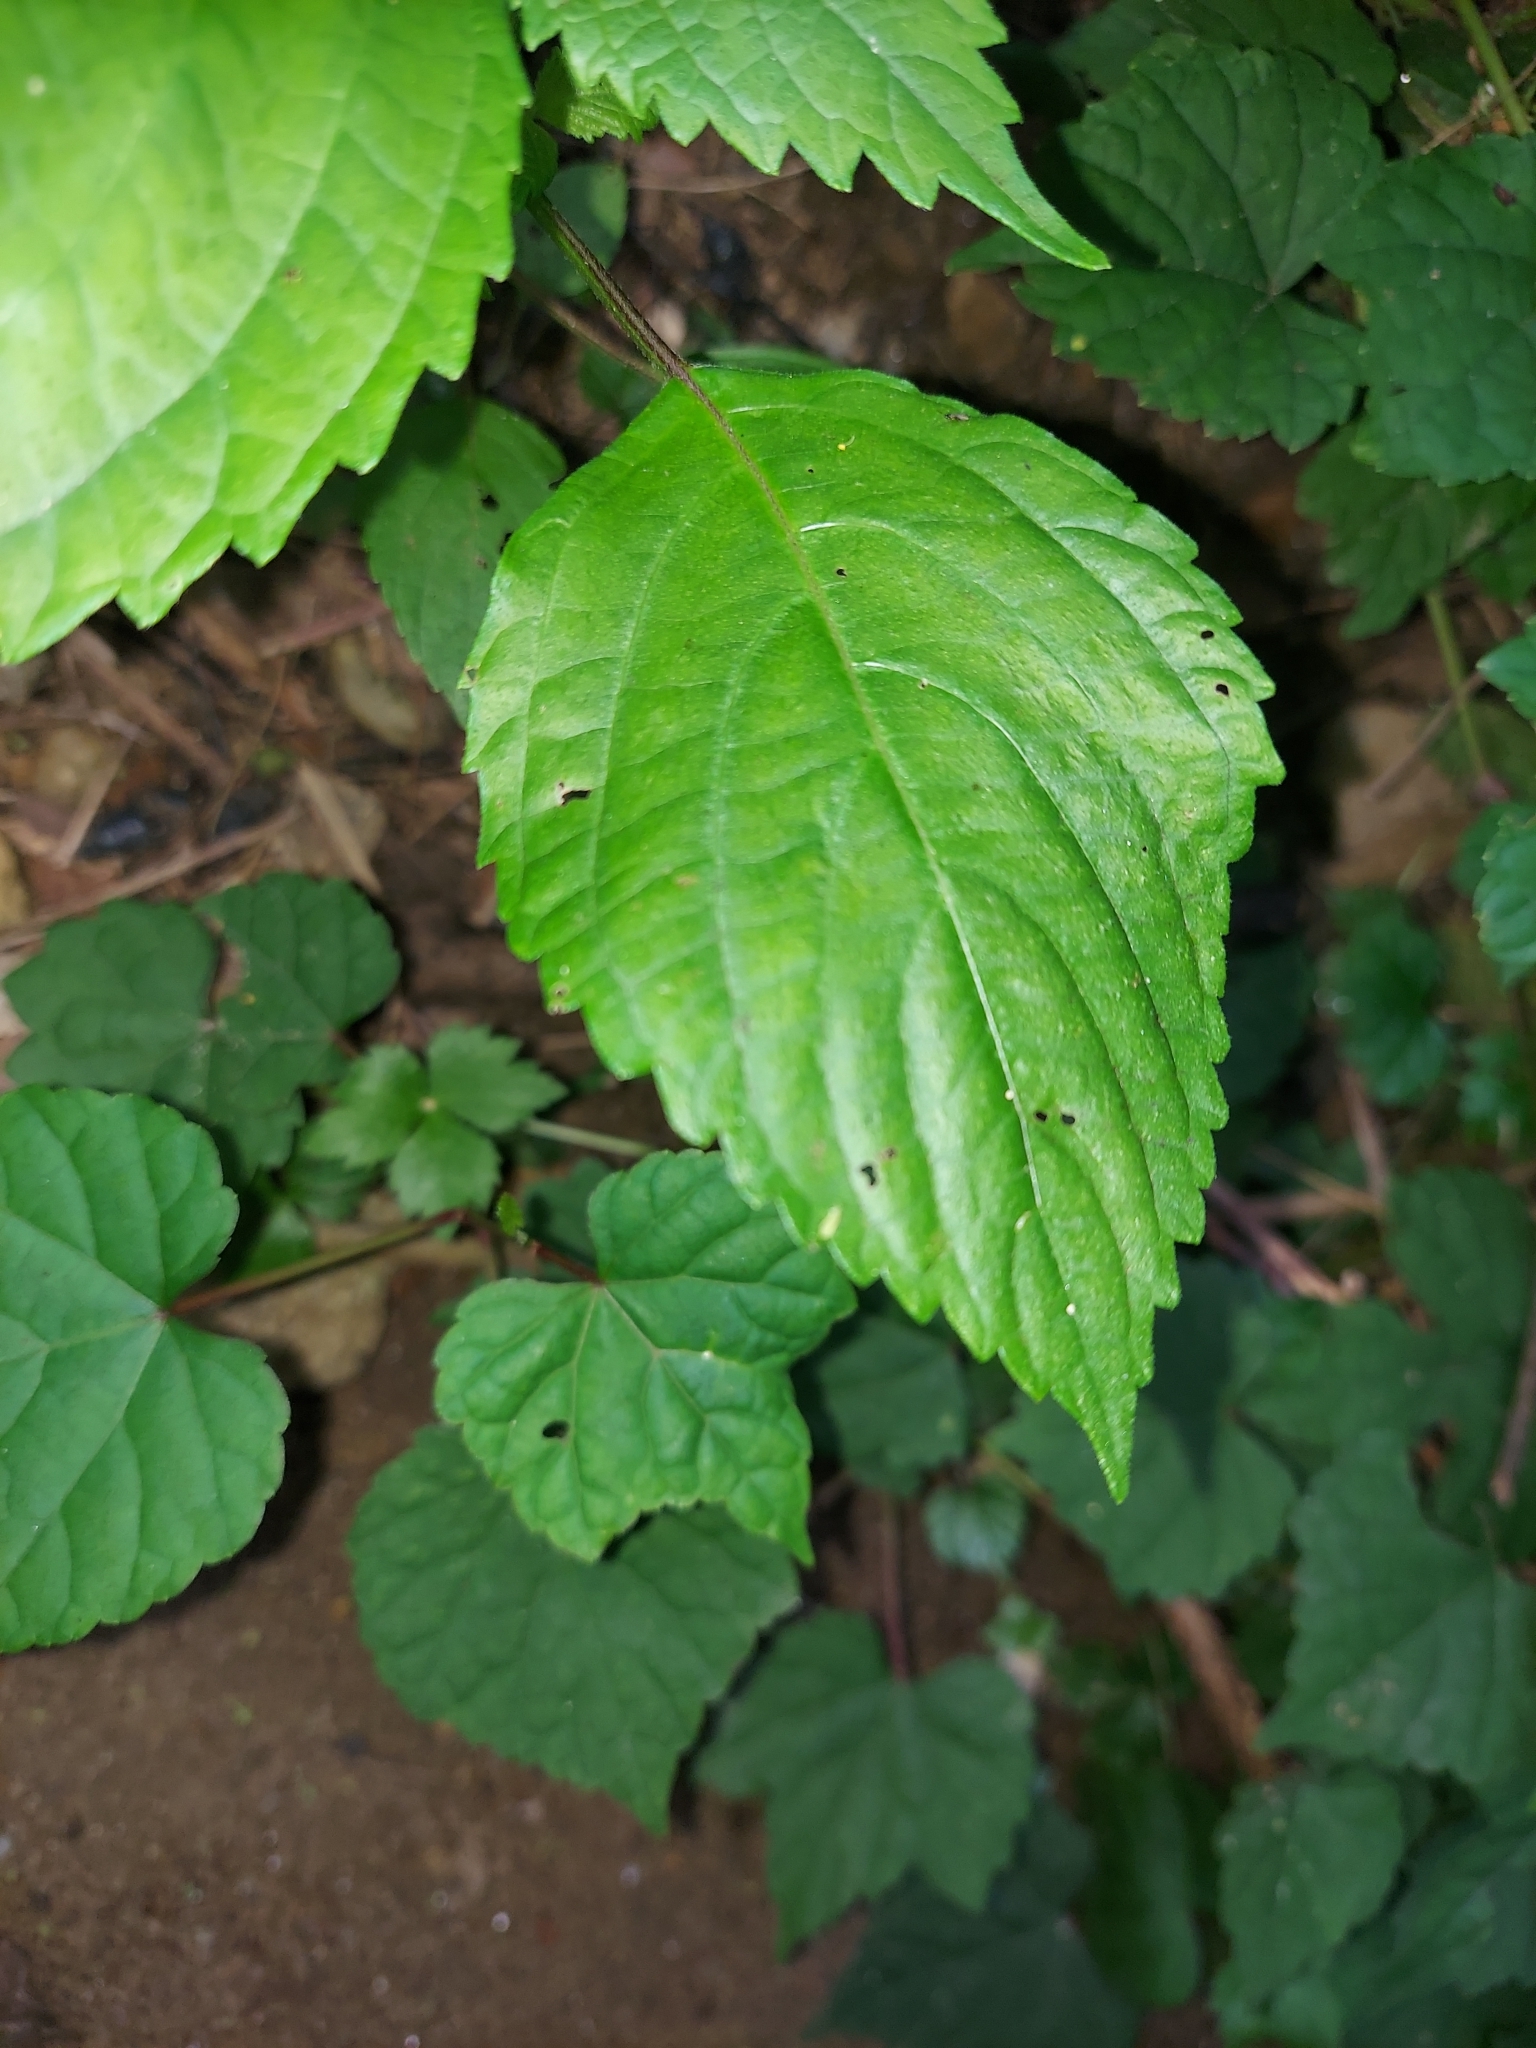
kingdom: Plantae
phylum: Tracheophyta
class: Magnoliopsida
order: Lamiales
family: Lamiaceae
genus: Perilla
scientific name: Perilla frutescens
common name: Perilla
